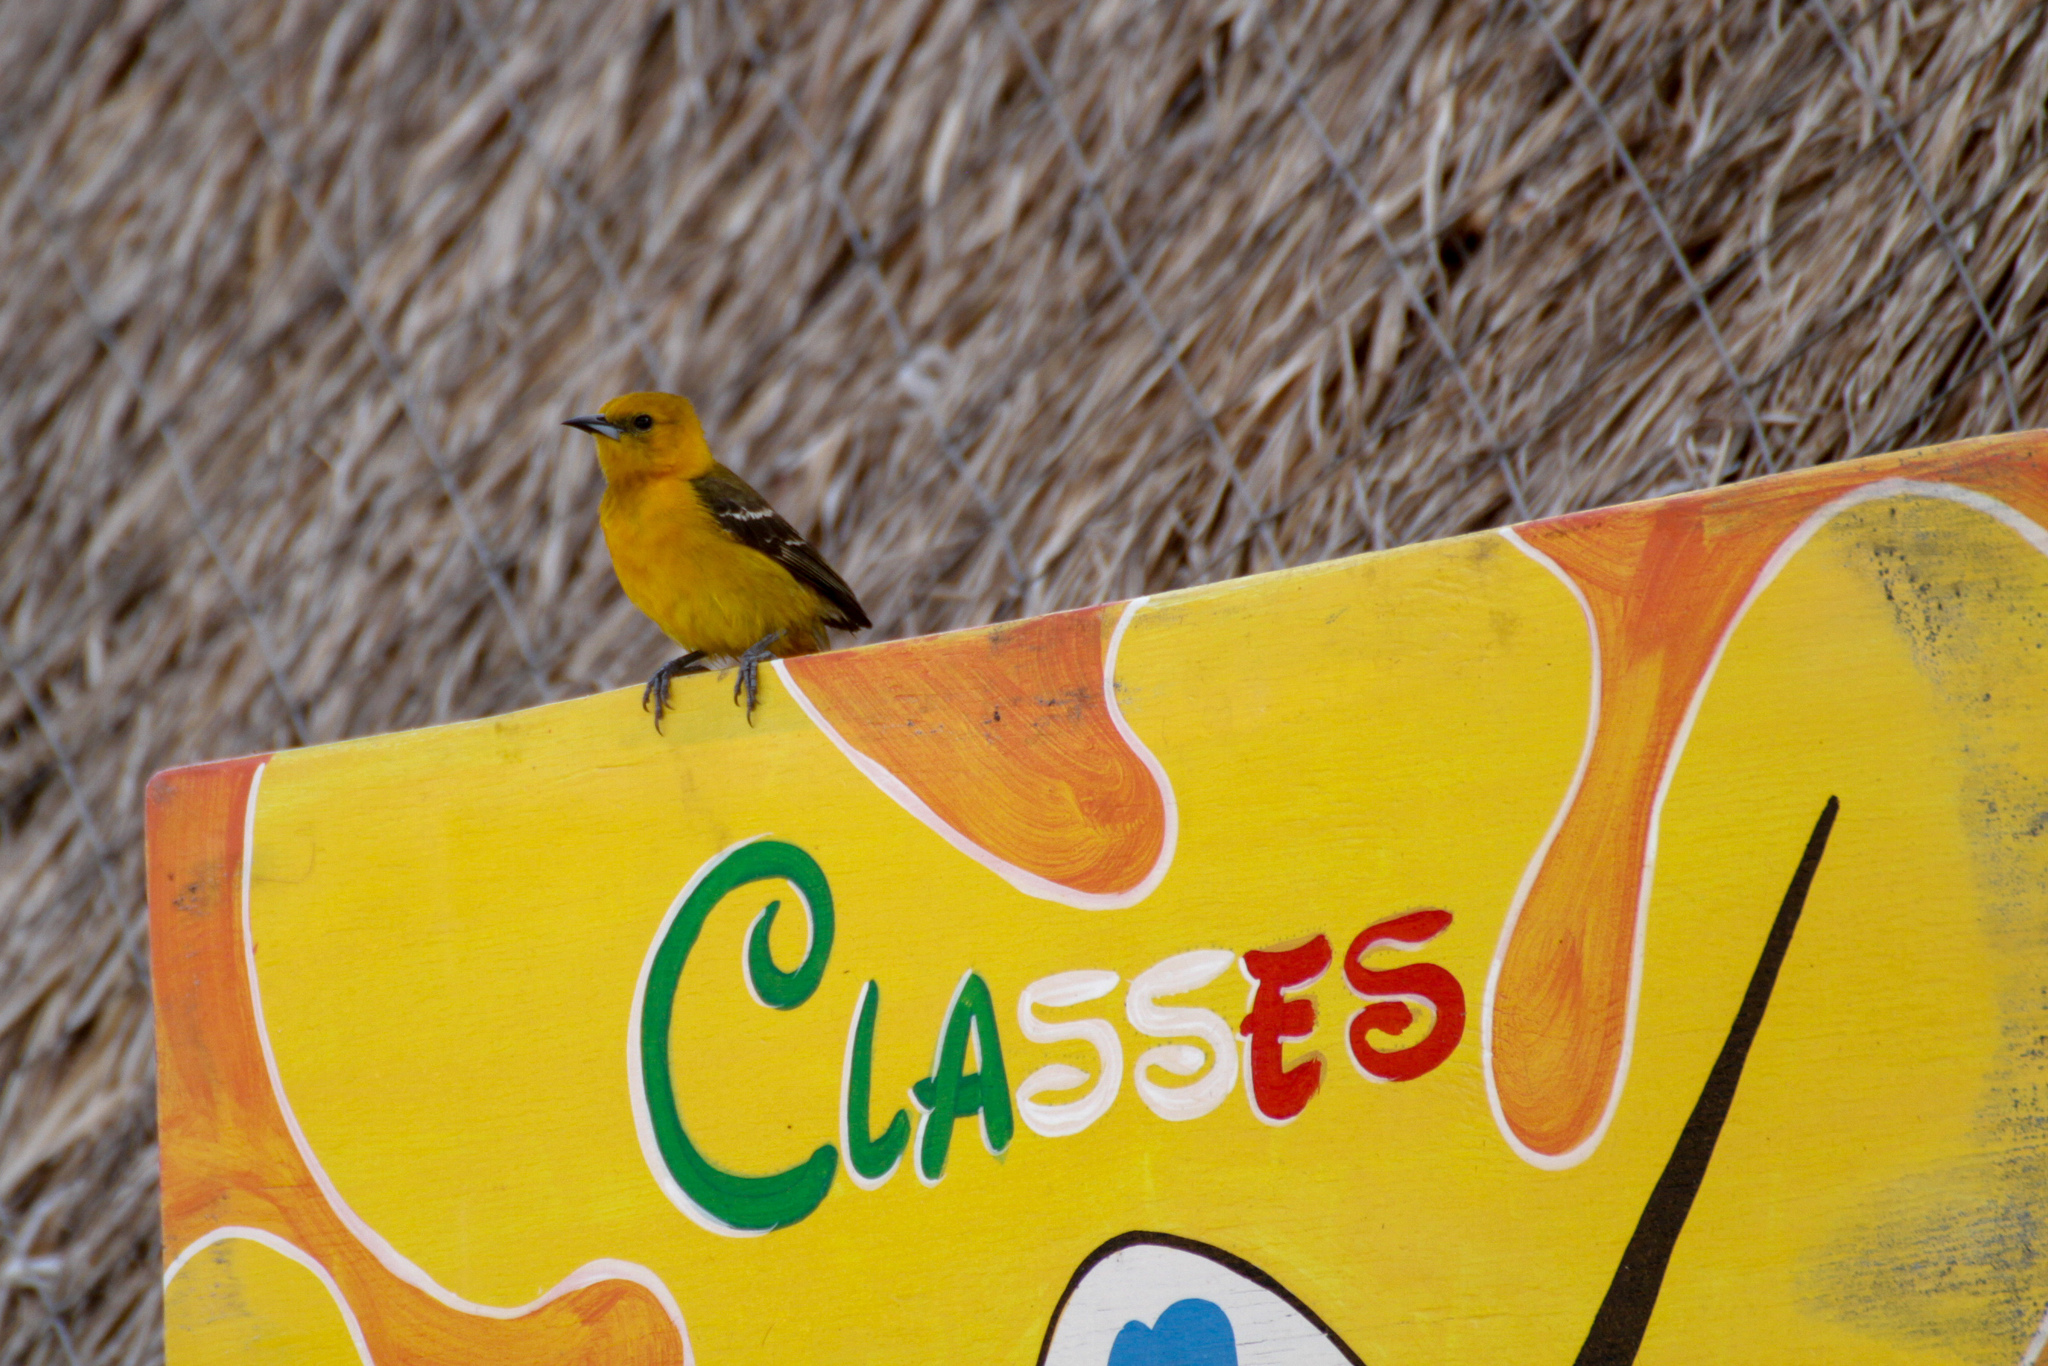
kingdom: Animalia
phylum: Chordata
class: Aves
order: Passeriformes
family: Icteridae
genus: Icterus
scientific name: Icterus cucullatus
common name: Hooded oriole
